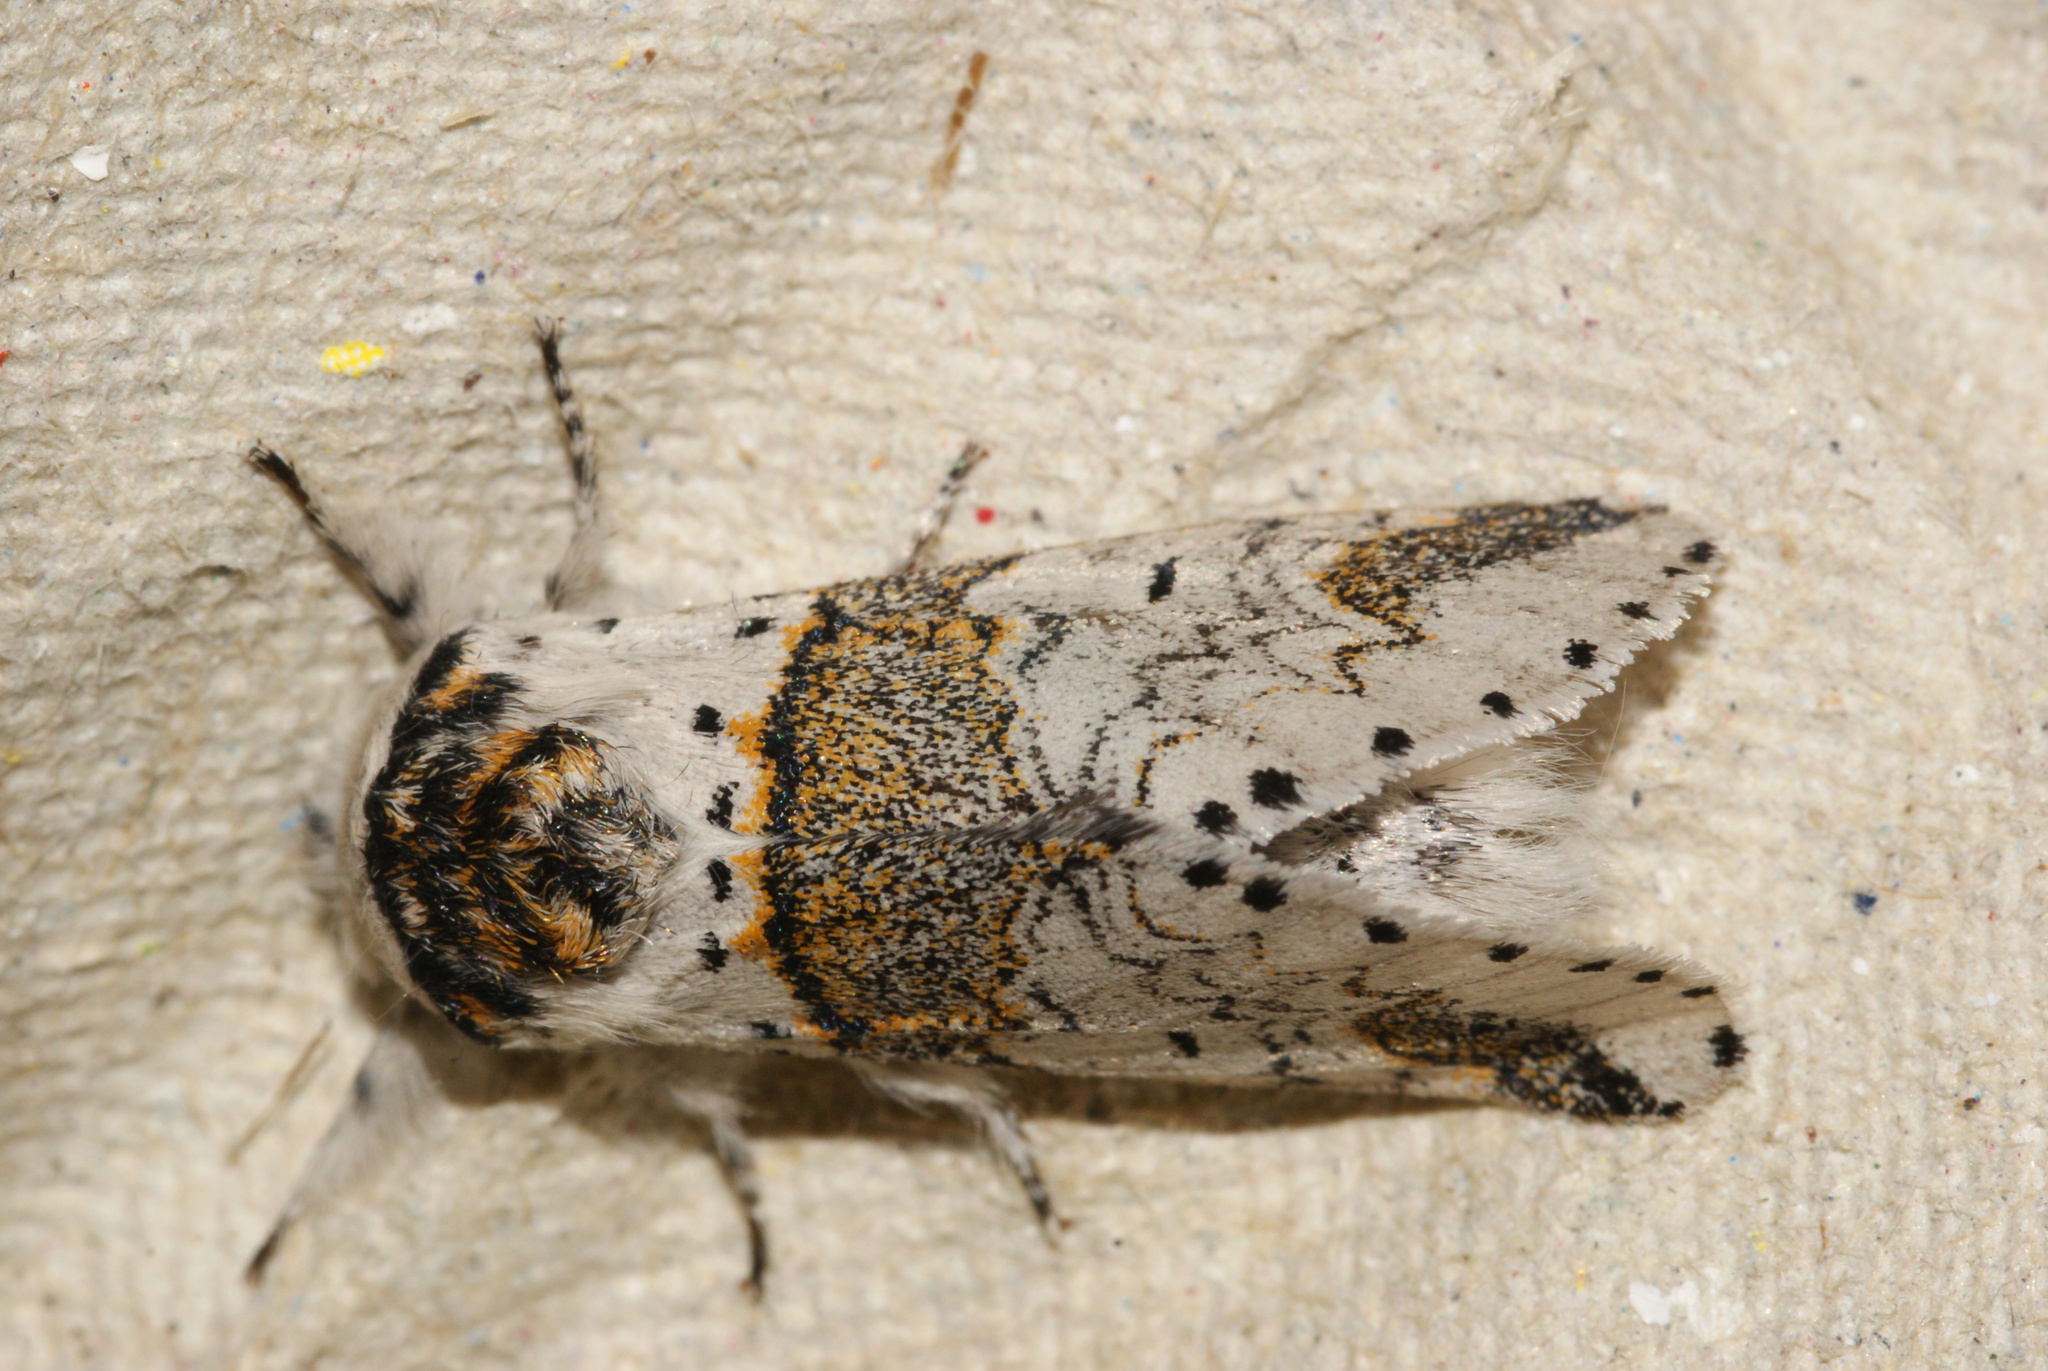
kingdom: Animalia
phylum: Arthropoda
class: Insecta
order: Lepidoptera
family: Notodontidae
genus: Furcula
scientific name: Furcula furcula
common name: Sallow kitten
